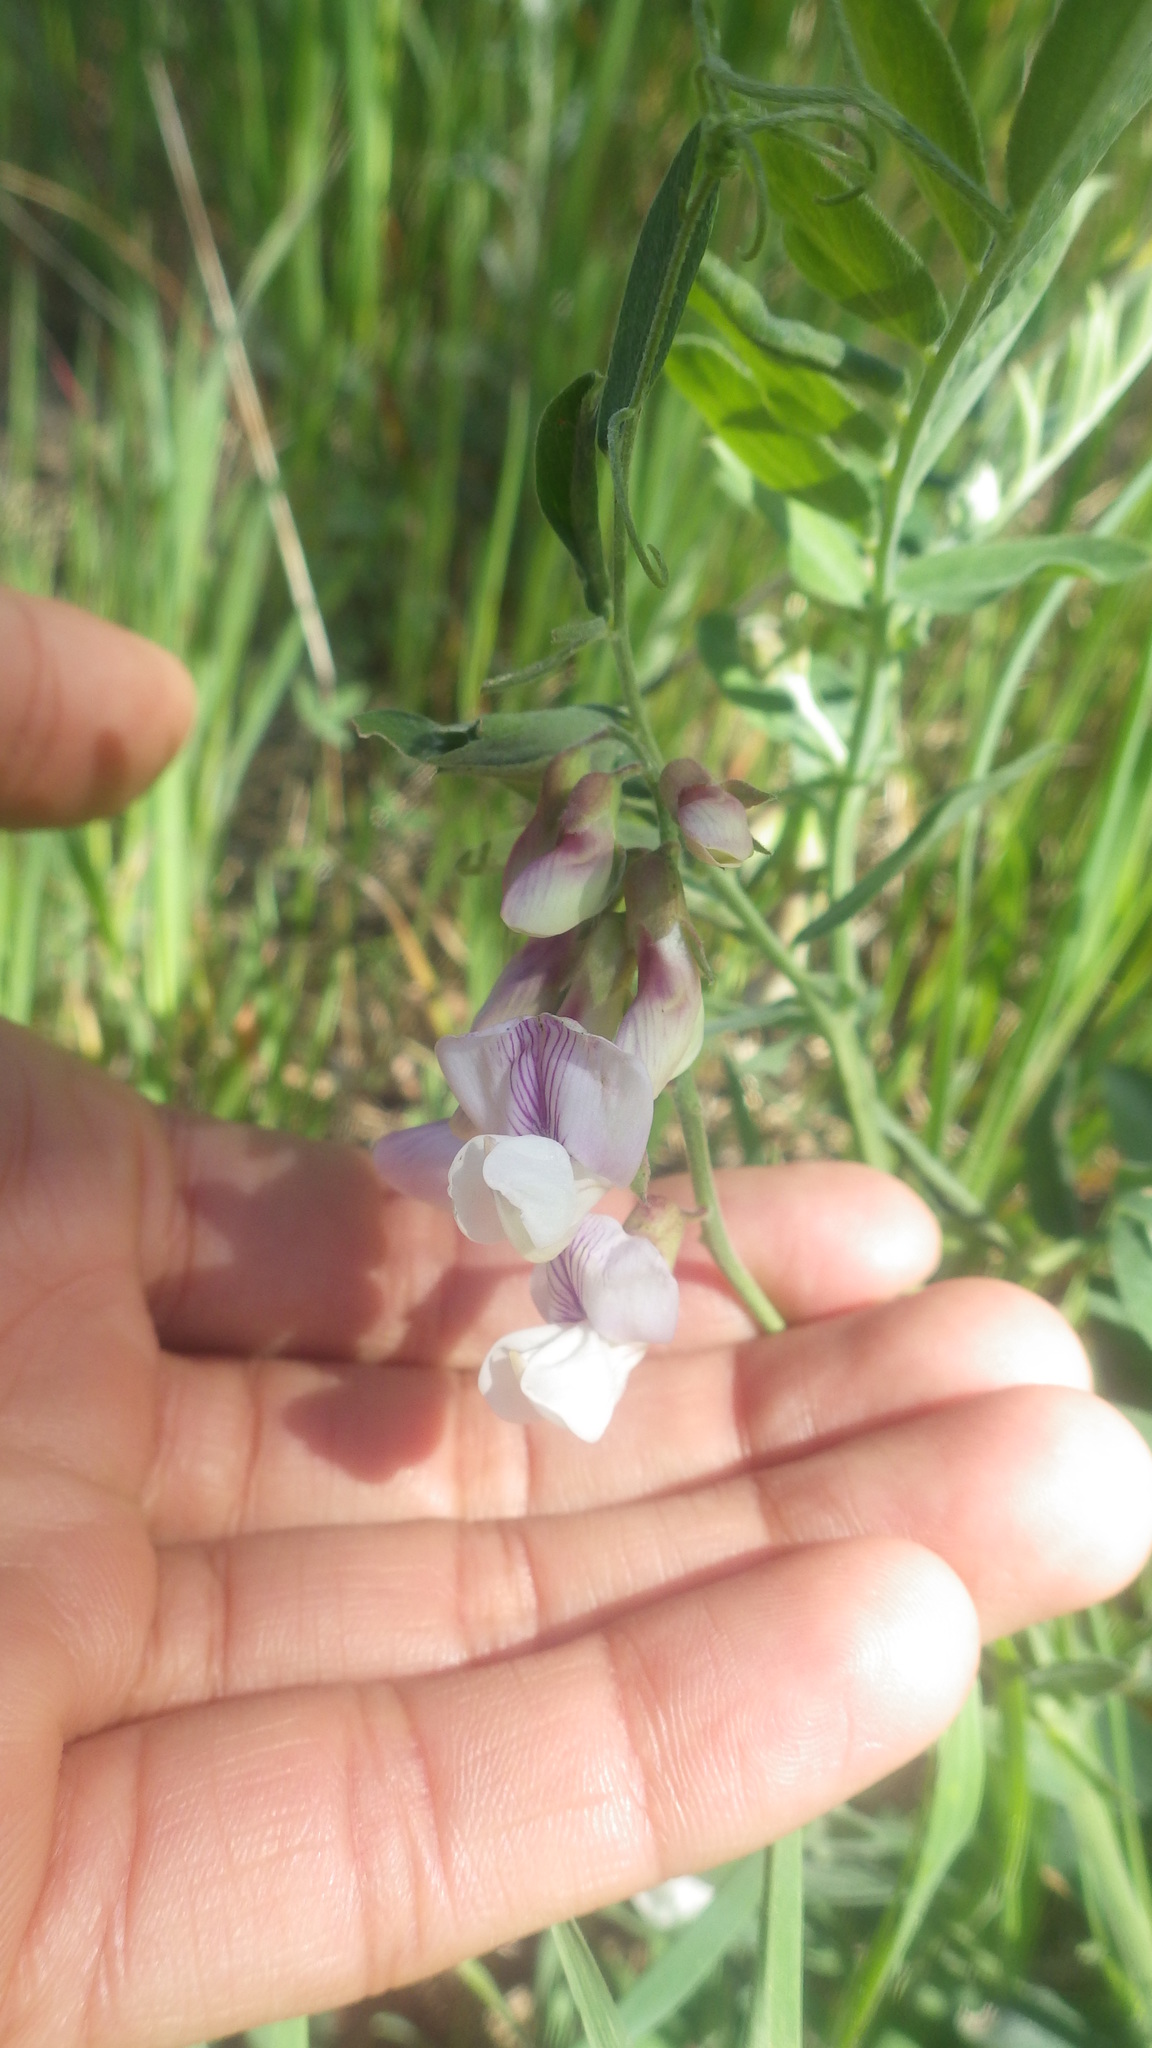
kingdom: Plantae
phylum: Tracheophyta
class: Magnoliopsida
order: Fabales
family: Fabaceae
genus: Lathyrus
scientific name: Lathyrus vestitus
